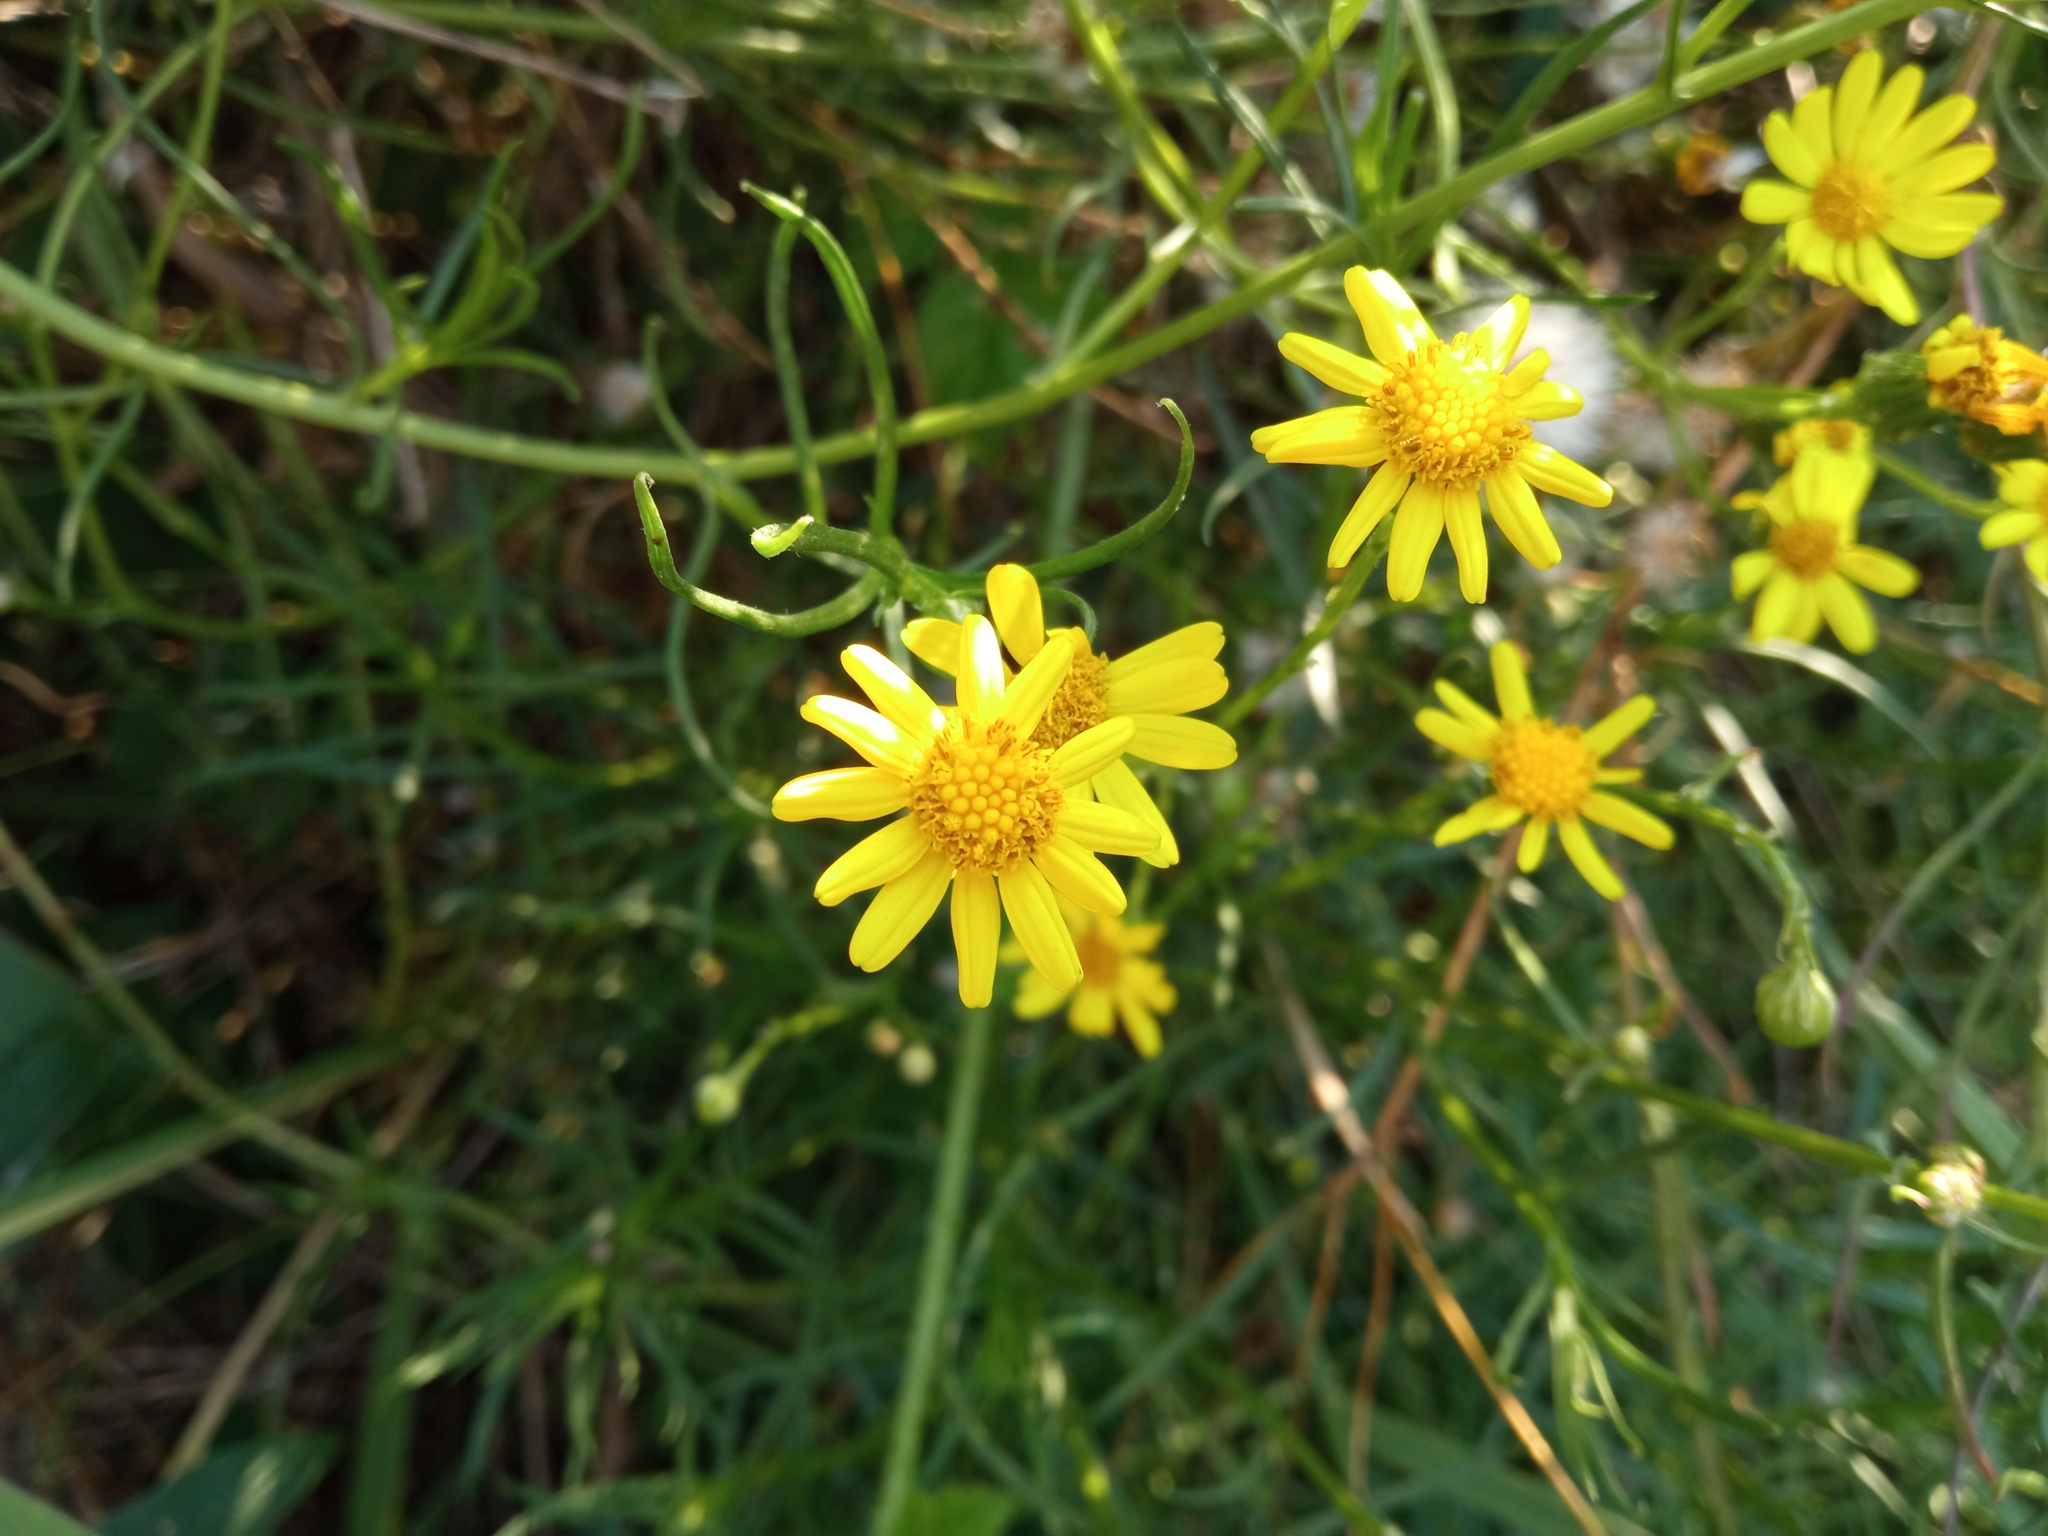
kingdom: Plantae
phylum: Tracheophyta
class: Magnoliopsida
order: Asterales
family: Asteraceae
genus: Senecio
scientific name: Senecio inaequidens
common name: Narrow-leaved ragwort
